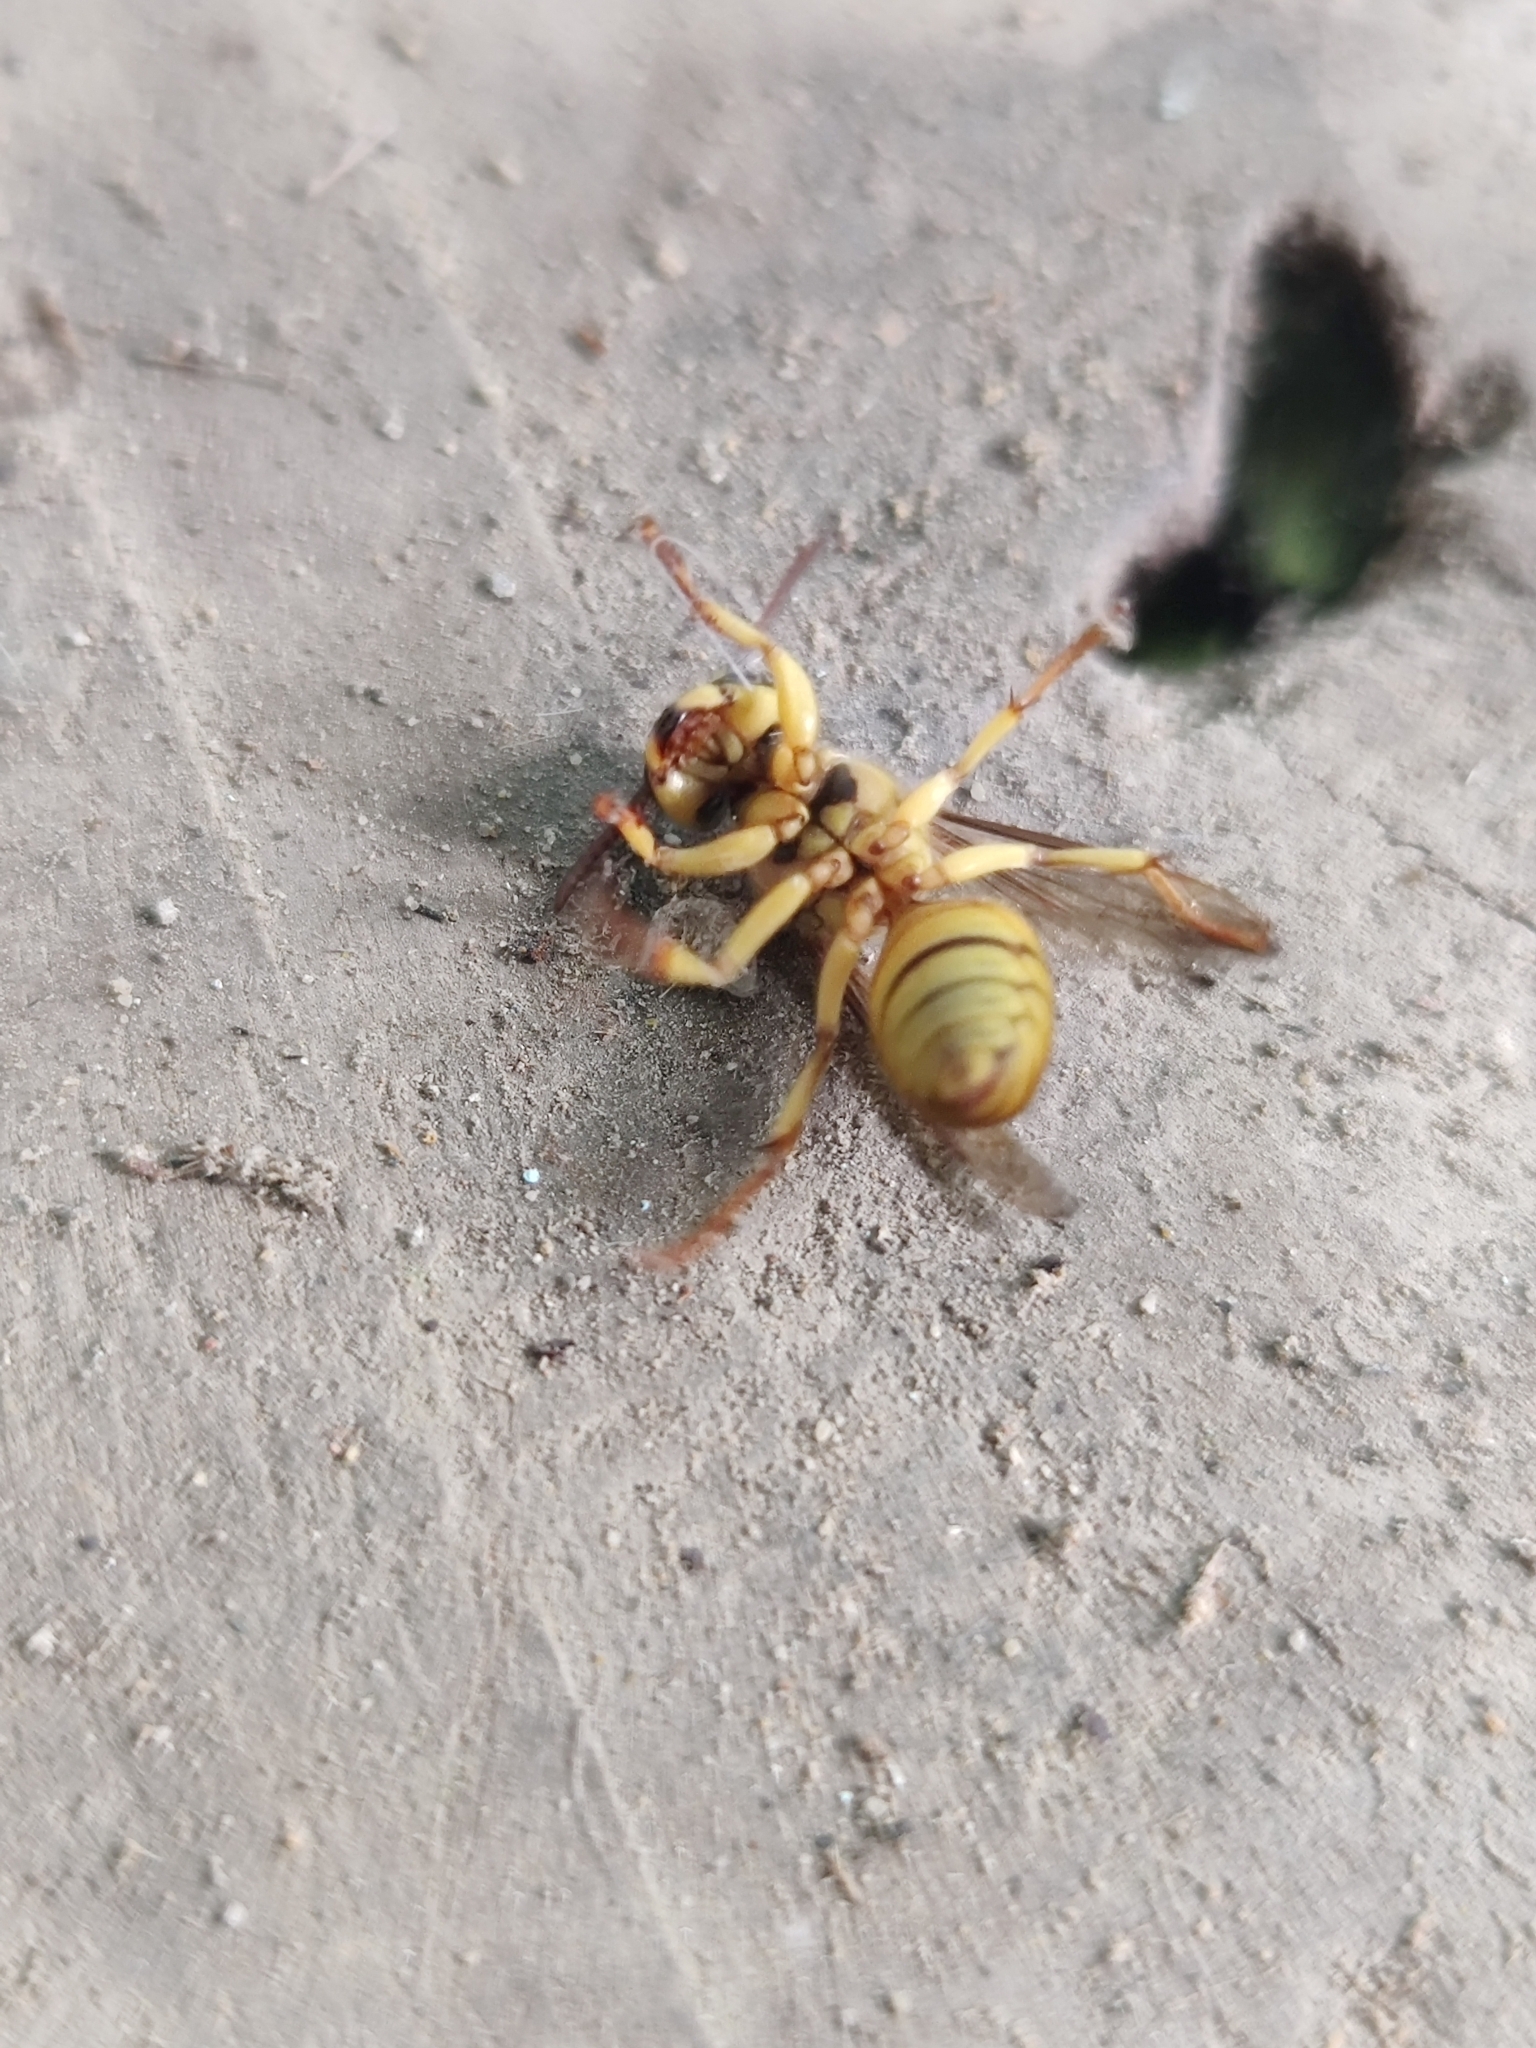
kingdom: Animalia
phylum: Arthropoda
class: Insecta
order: Hymenoptera
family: Vespidae
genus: Vespa
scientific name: Vespa bicolor
